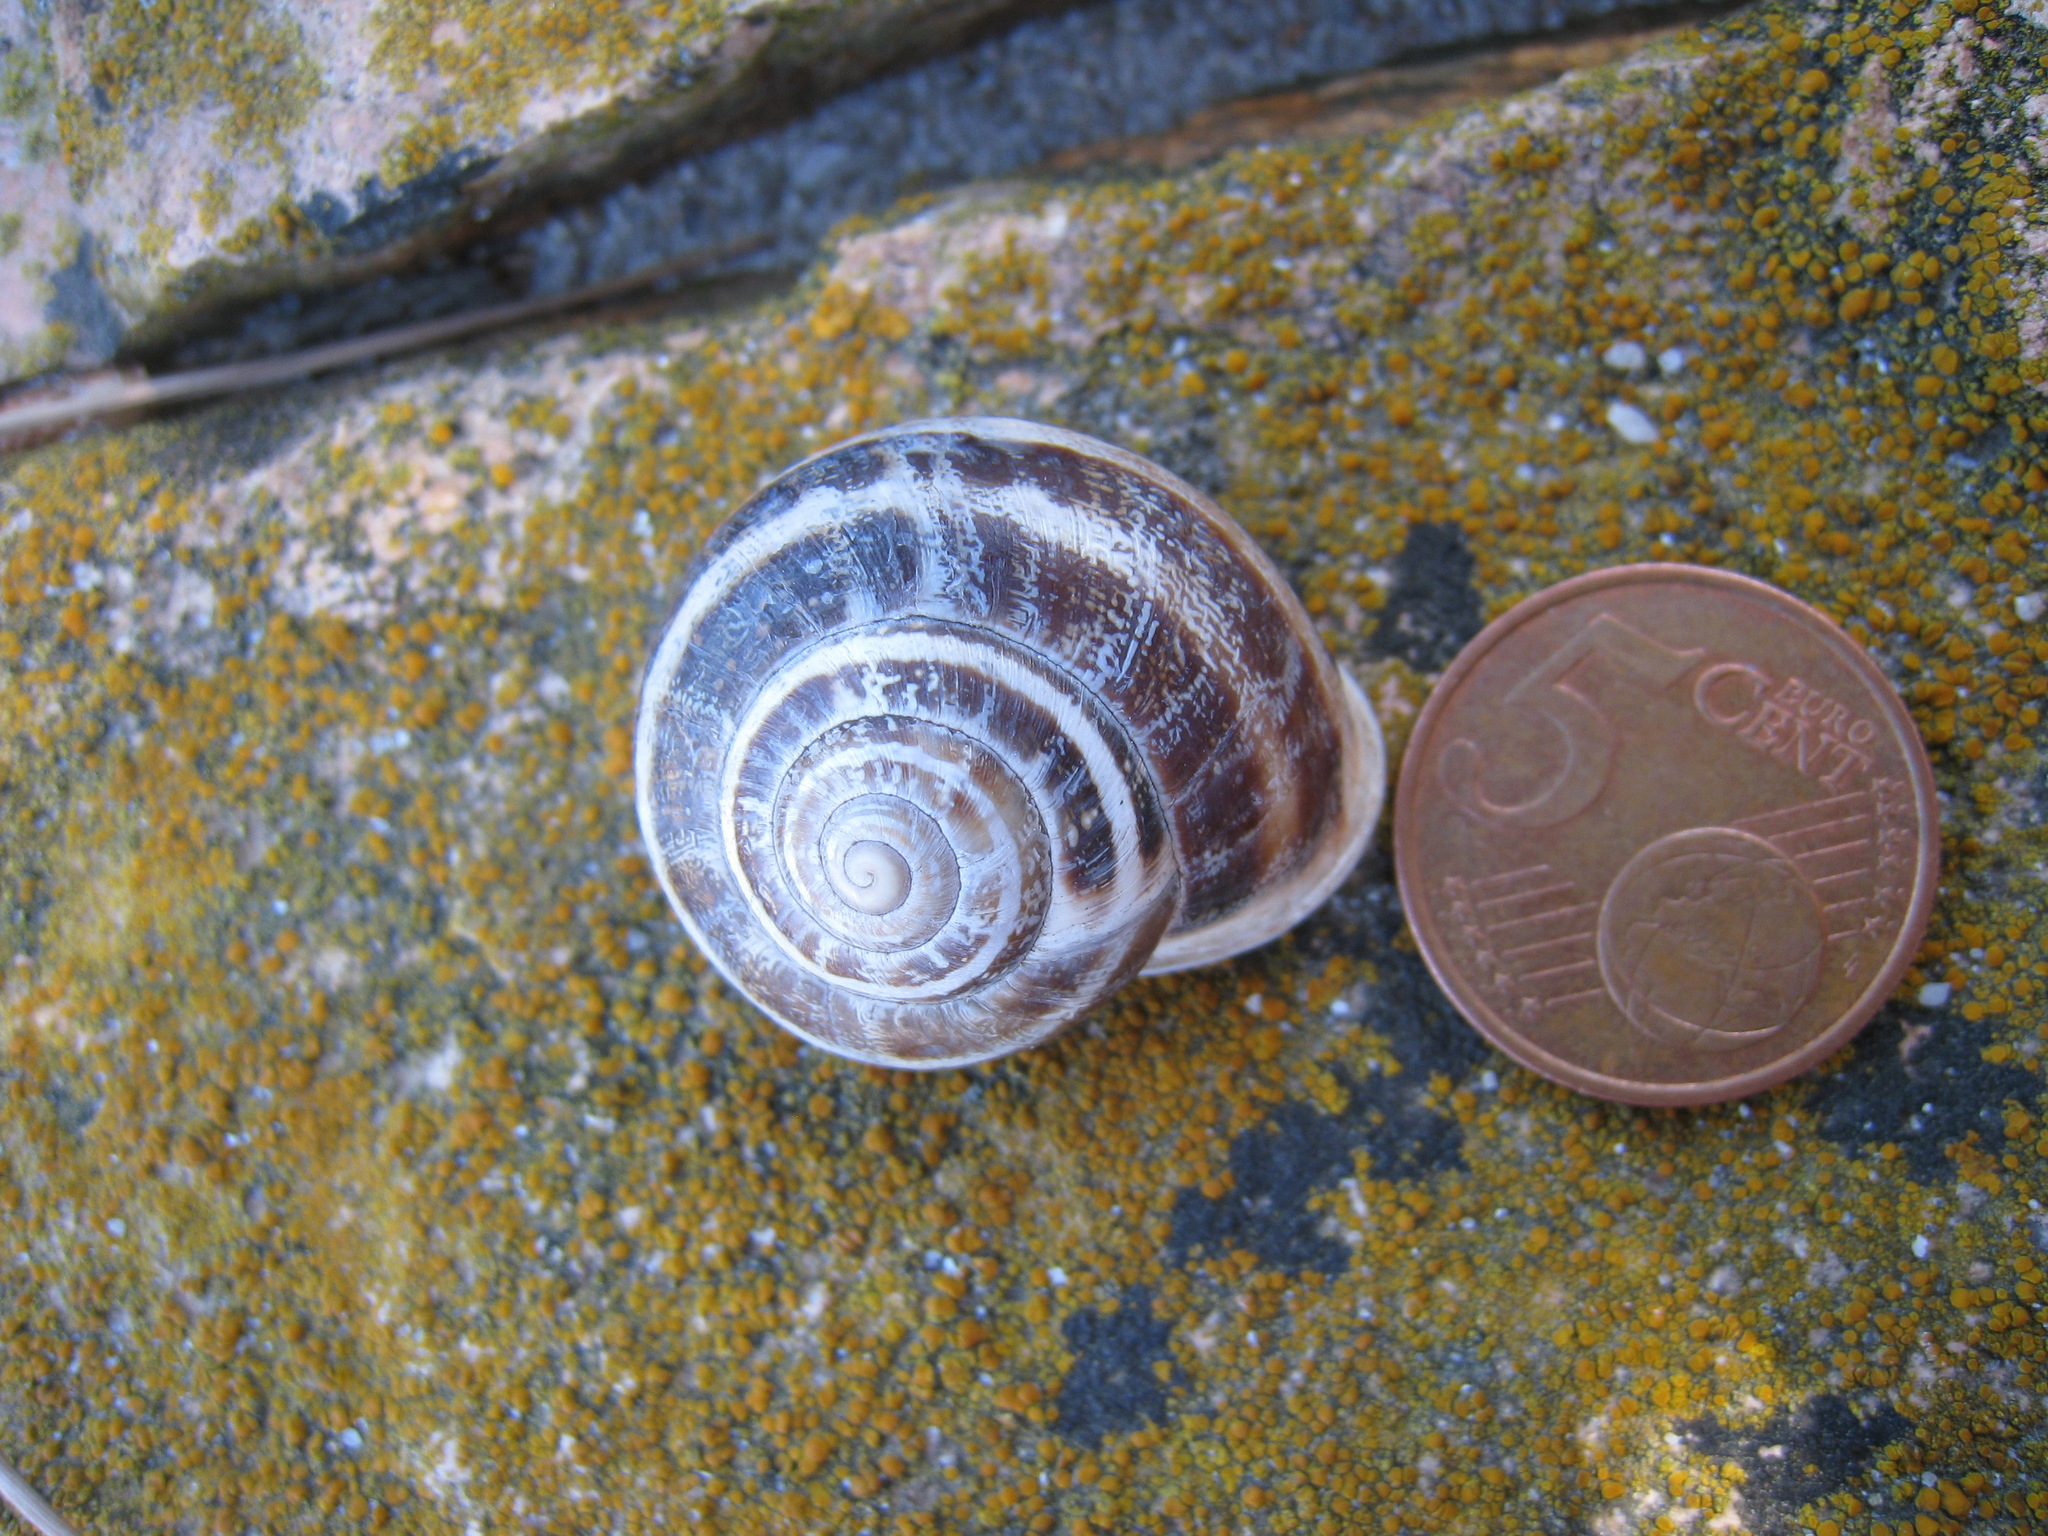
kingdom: Animalia
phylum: Mollusca
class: Gastropoda
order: Stylommatophora
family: Helicidae
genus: Eobania
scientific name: Eobania vermiculata
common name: Chocolateband snail
